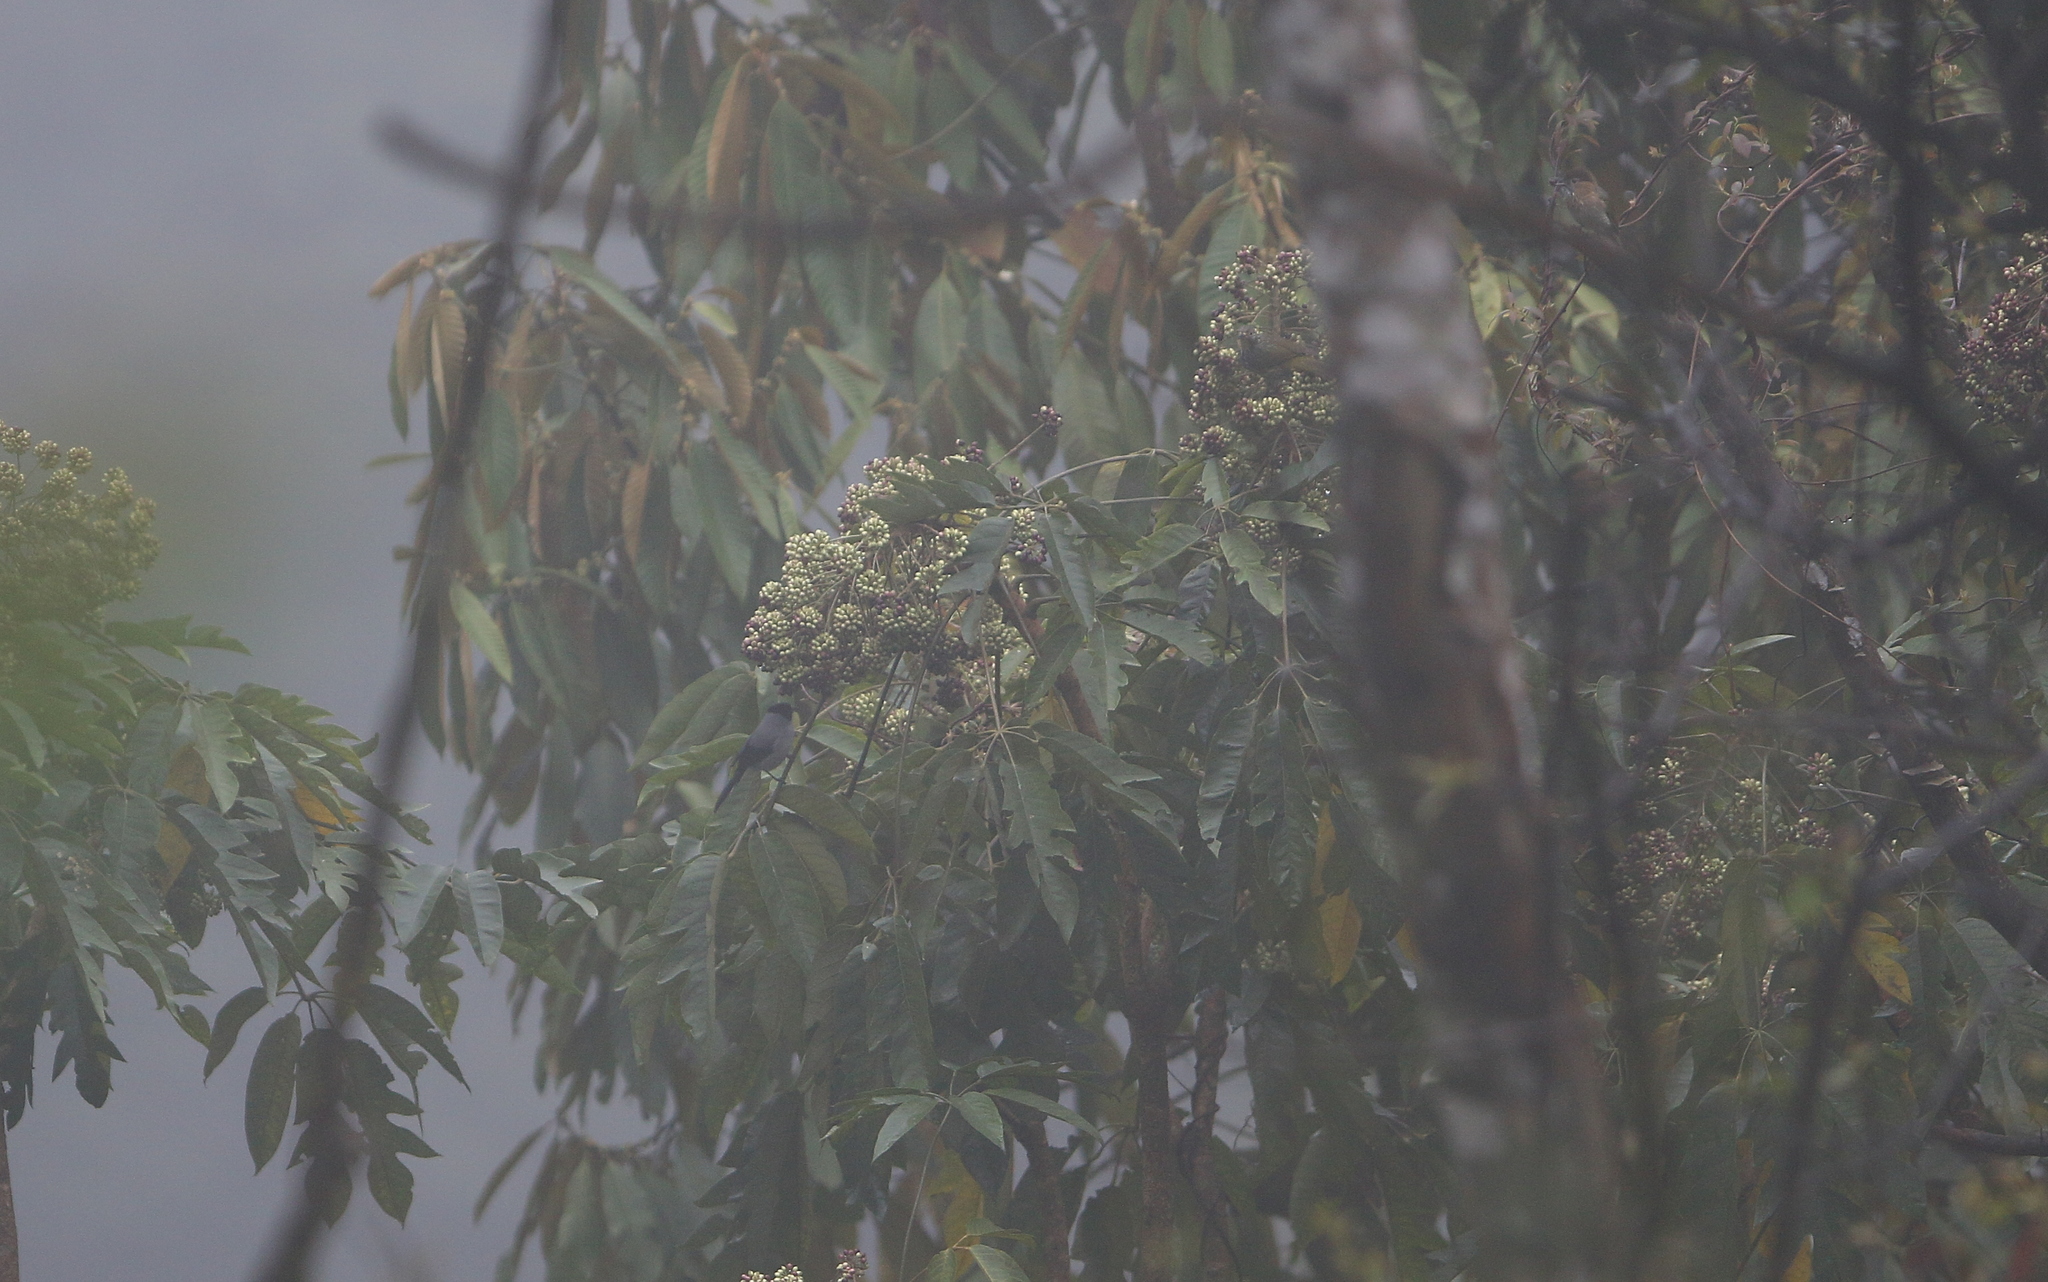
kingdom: Animalia
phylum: Chordata
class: Aves
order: Passeriformes
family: Leiothrichidae
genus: Heterophasia
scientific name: Heterophasia desgodinsi
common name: Black-headed sibia
